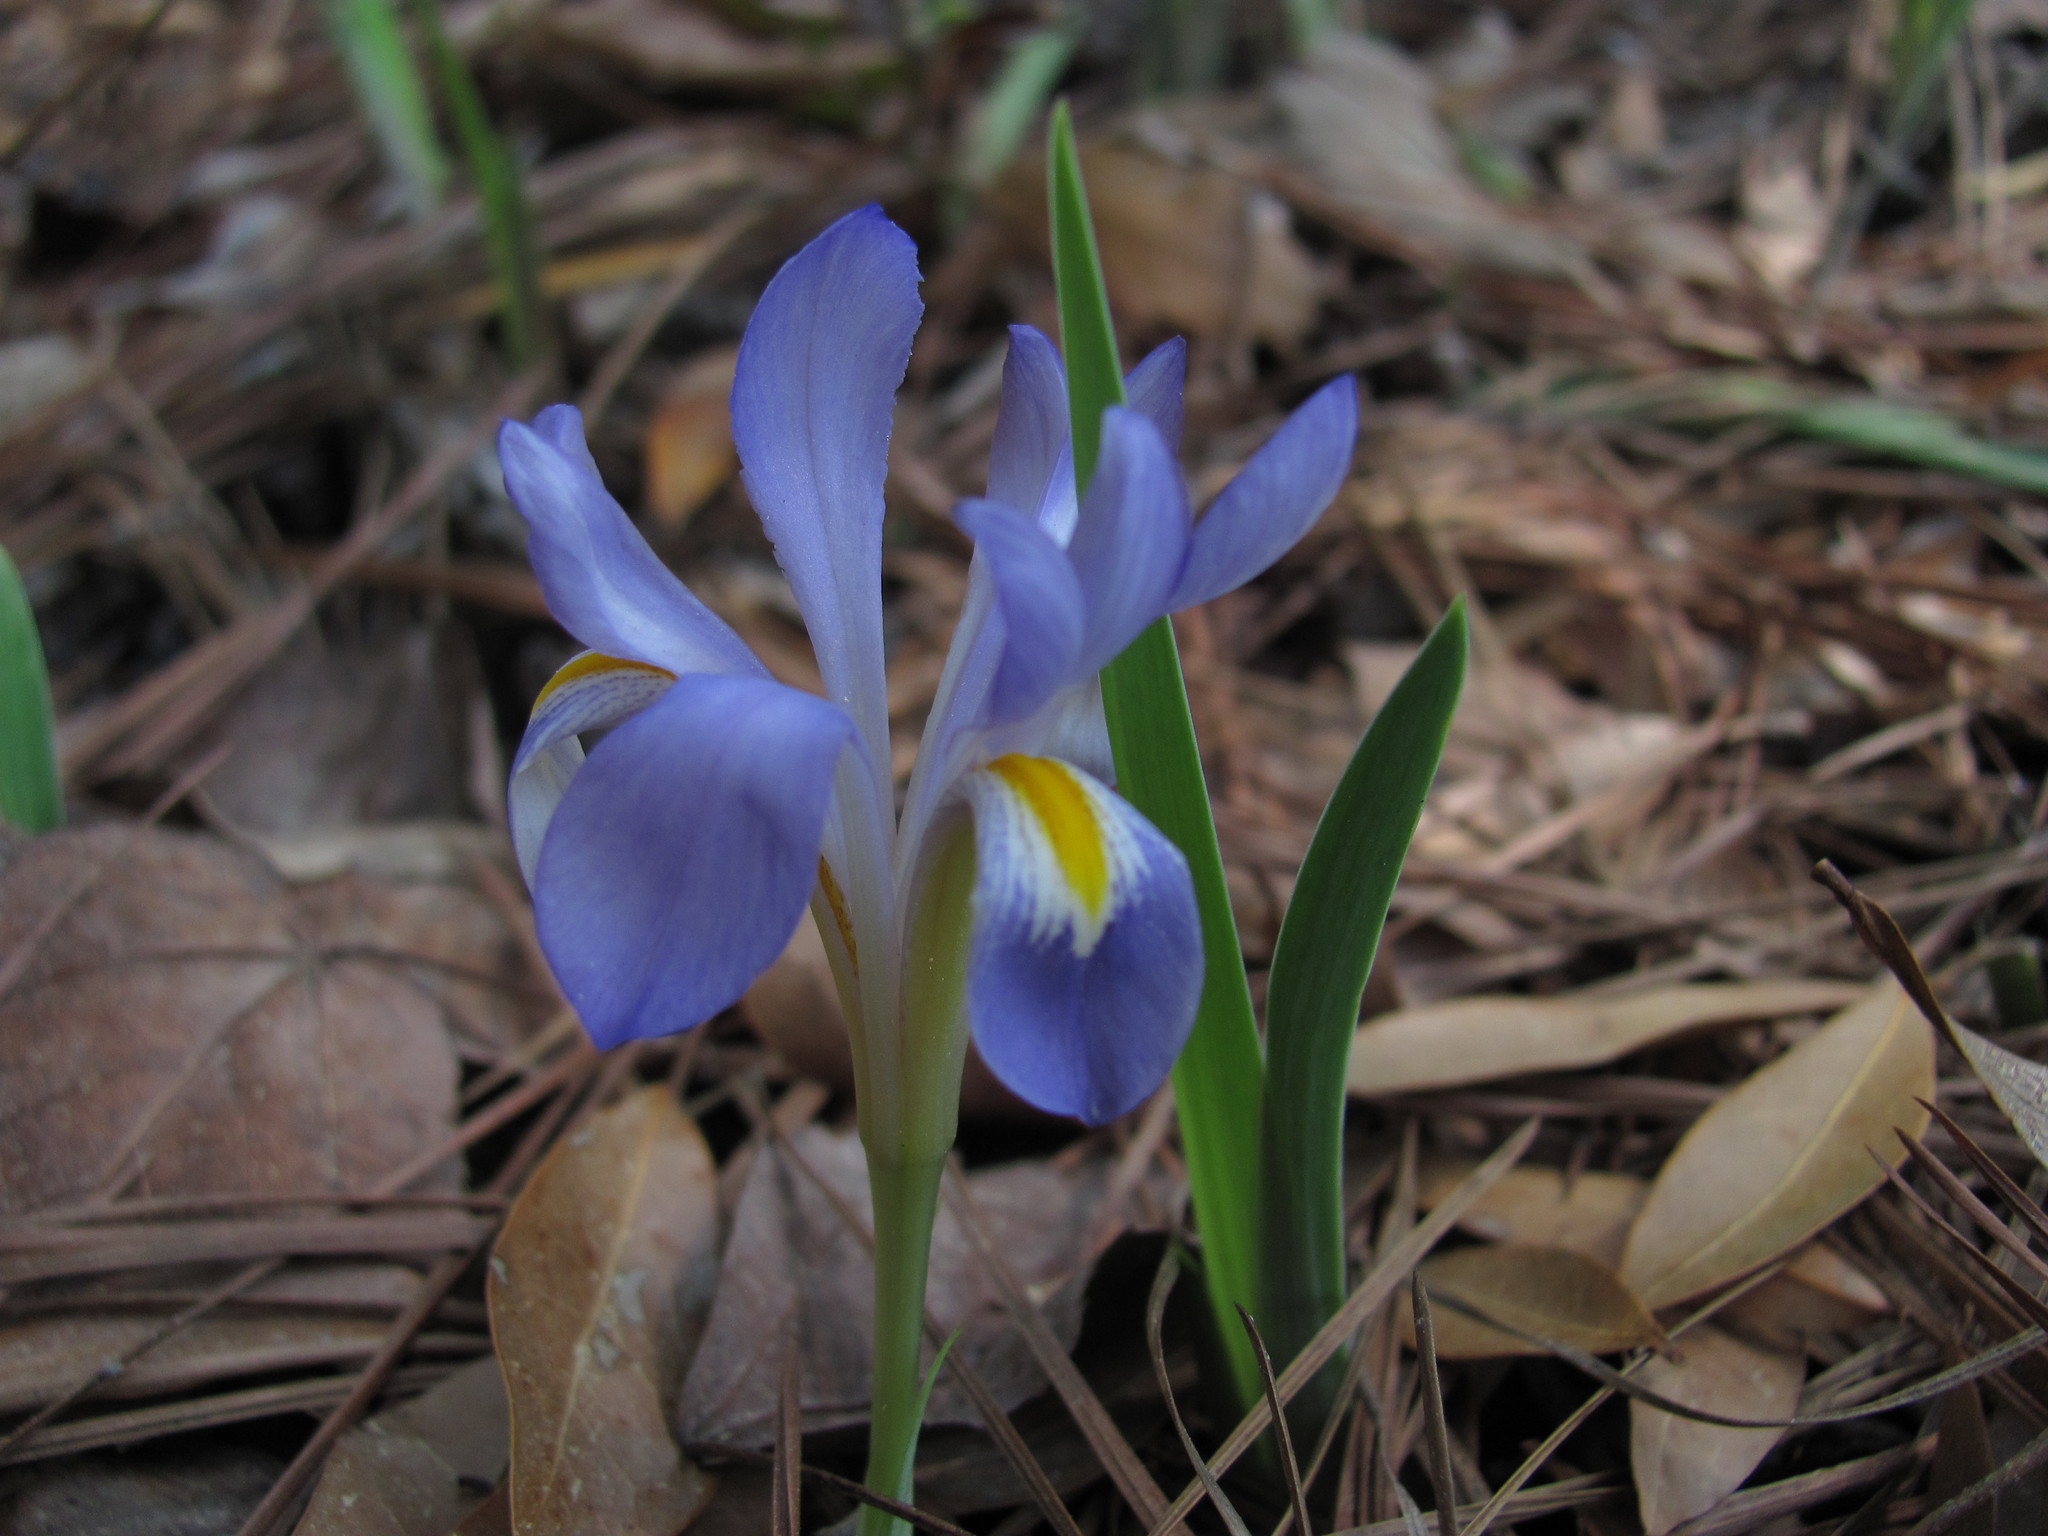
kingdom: Plantae
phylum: Tracheophyta
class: Liliopsida
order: Asparagales
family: Iridaceae
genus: Iris
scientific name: Iris verna
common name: Dwarf iris
